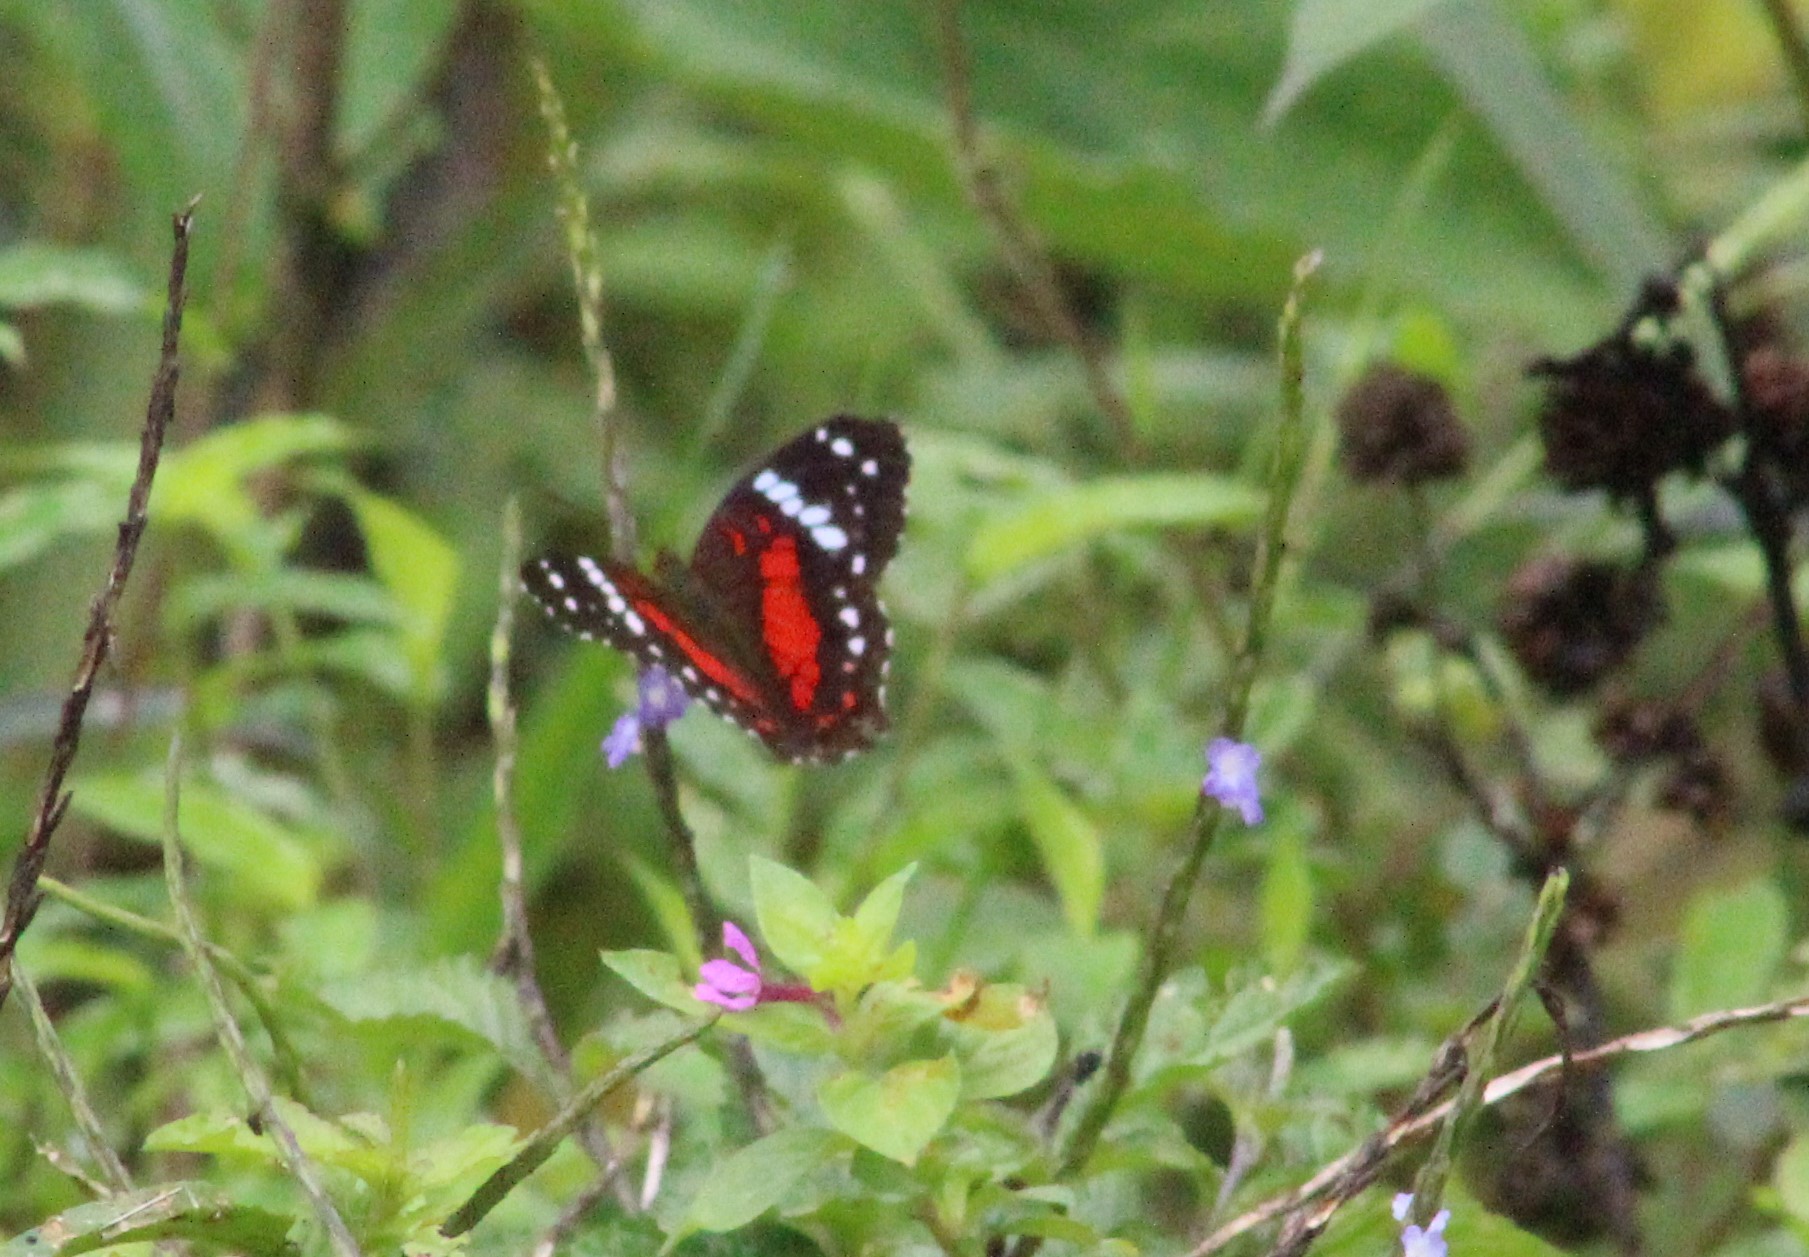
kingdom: Animalia
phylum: Arthropoda
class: Insecta
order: Lepidoptera
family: Nymphalidae
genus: Anartia
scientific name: Anartia amathea
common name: Red peacock
